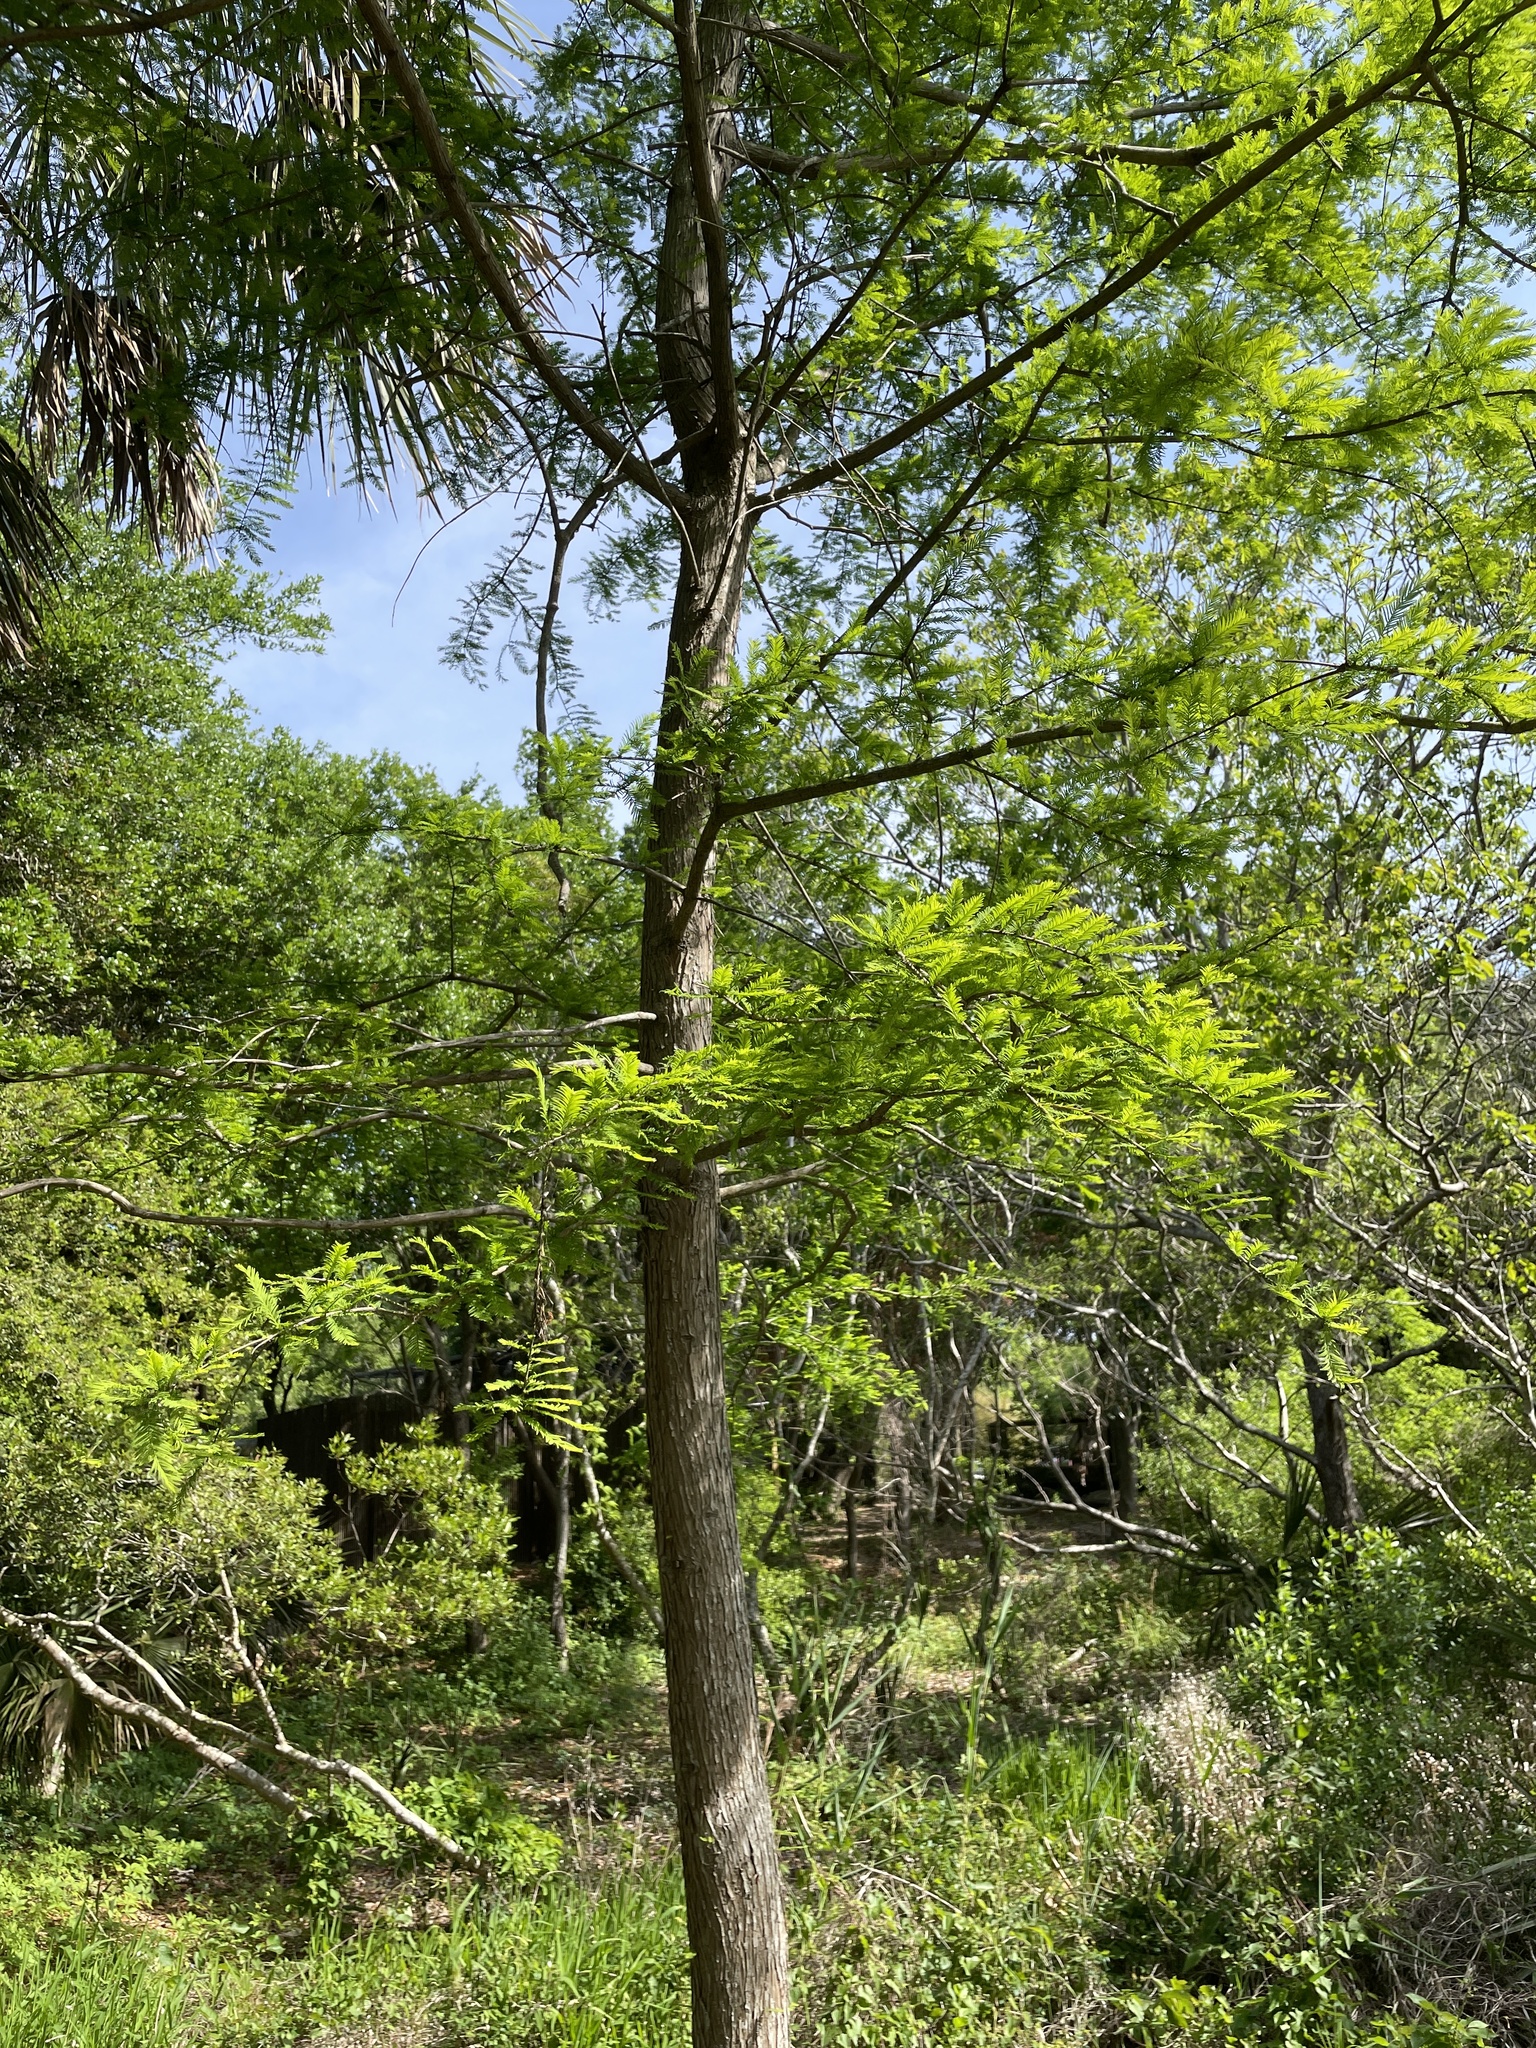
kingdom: Plantae
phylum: Tracheophyta
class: Pinopsida
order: Pinales
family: Cupressaceae
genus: Taxodium
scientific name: Taxodium distichum
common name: Bald cypress
